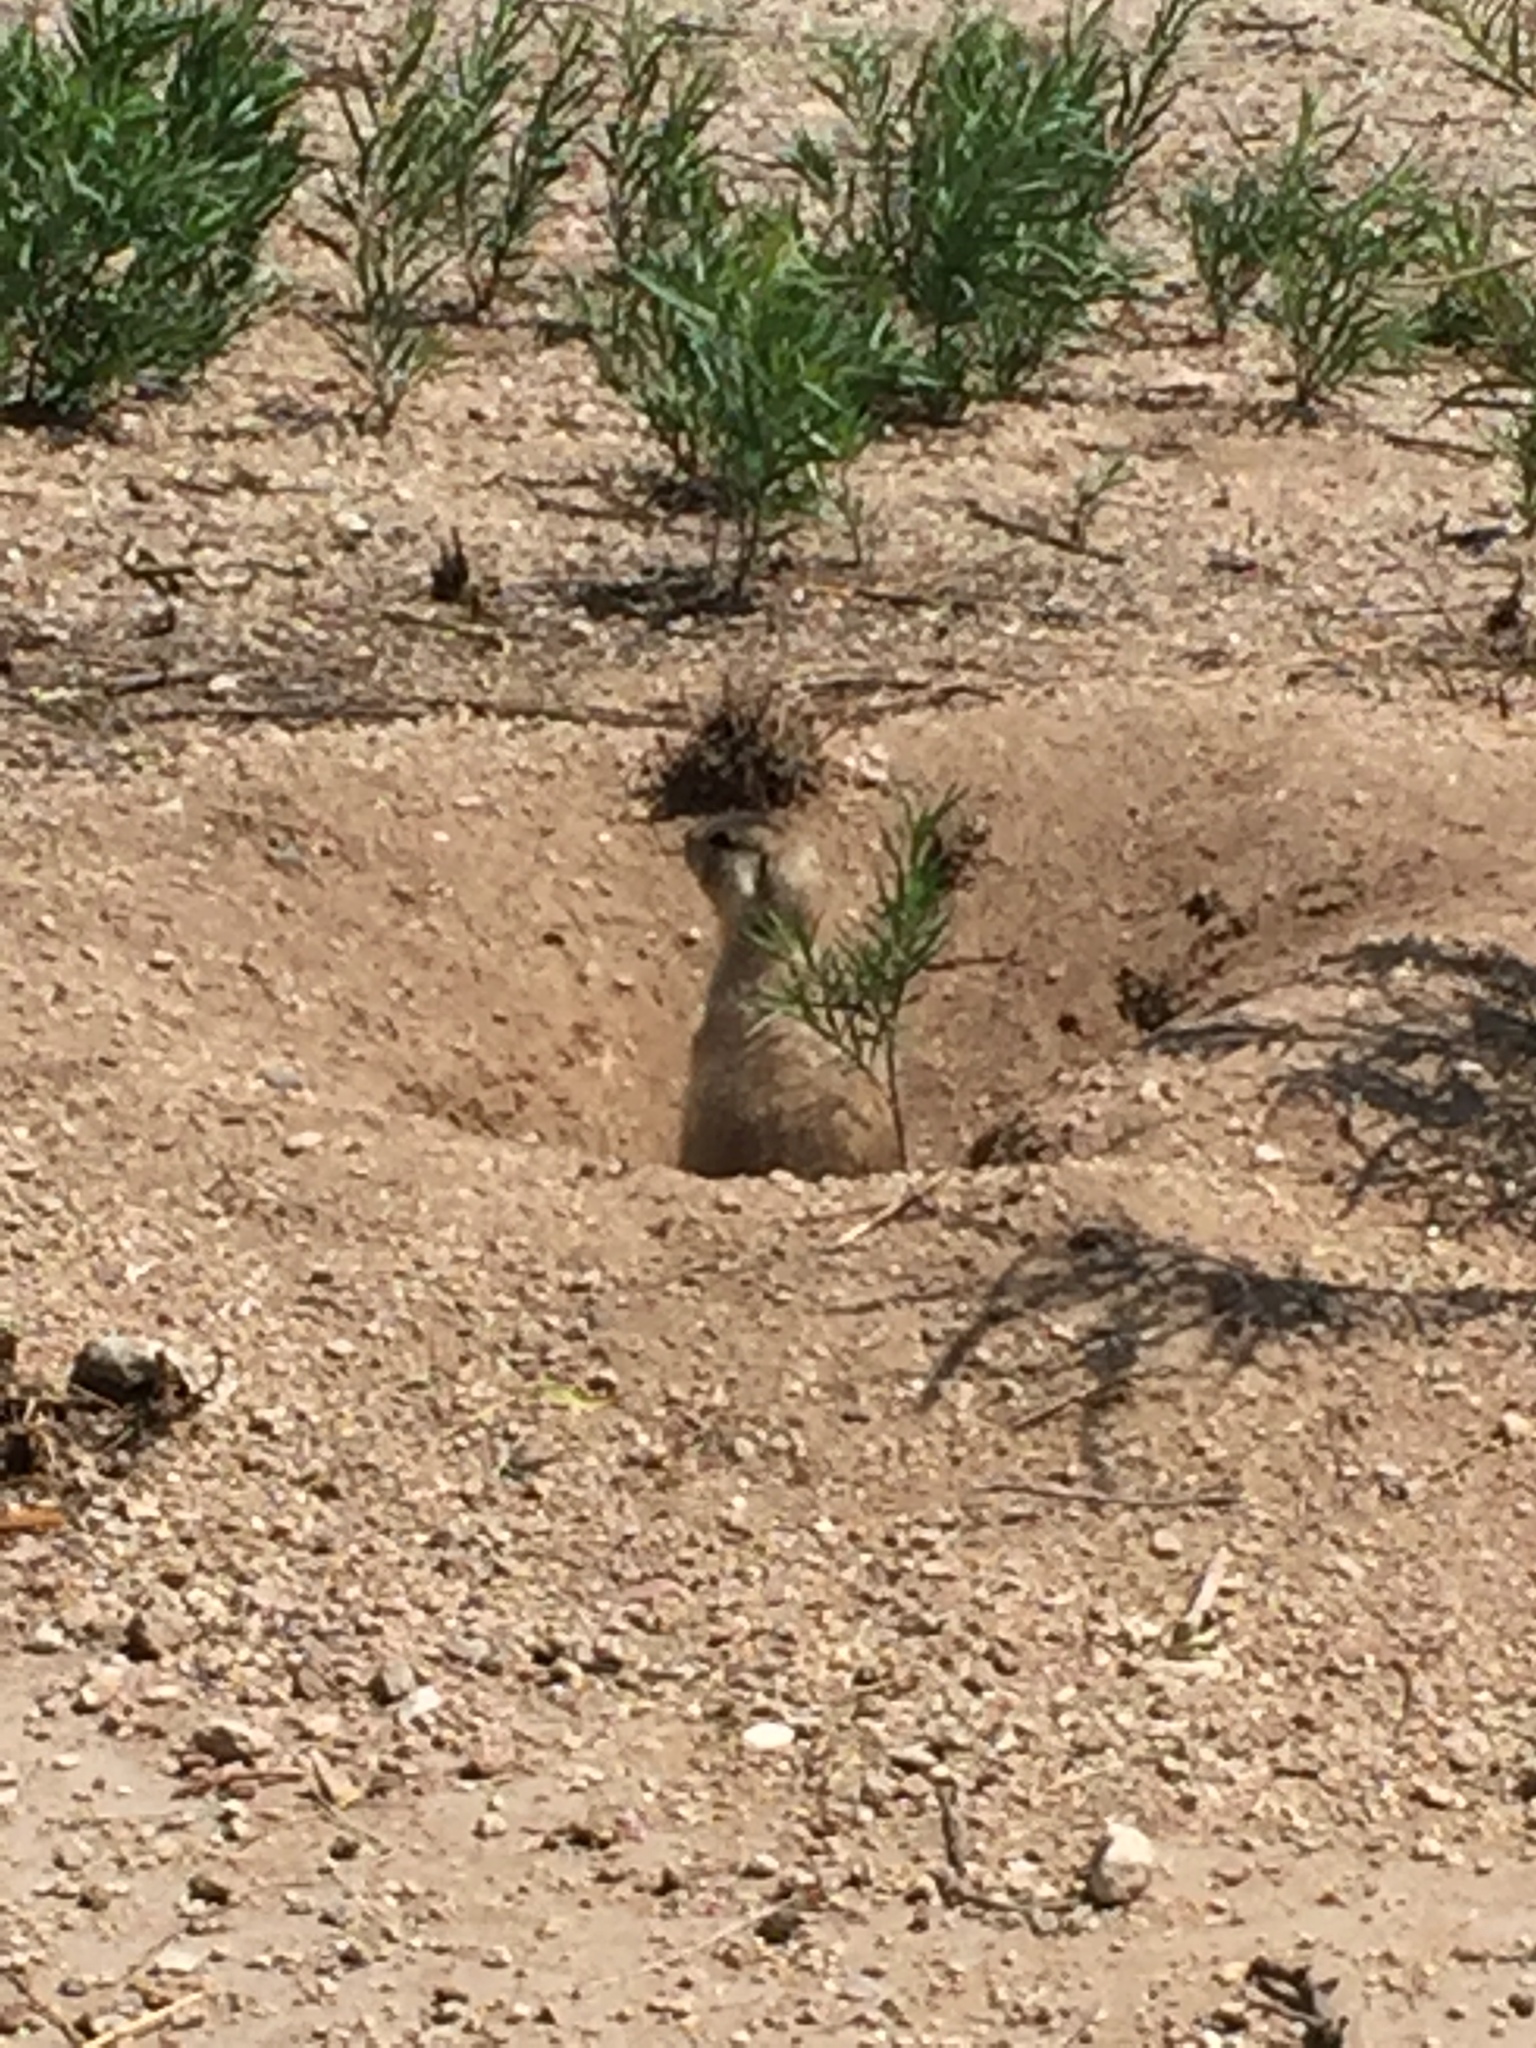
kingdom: Animalia
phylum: Chordata
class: Mammalia
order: Rodentia
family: Sciuridae
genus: Cynomys
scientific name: Cynomys gunnisoni
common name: Gunnison's prairie dog
